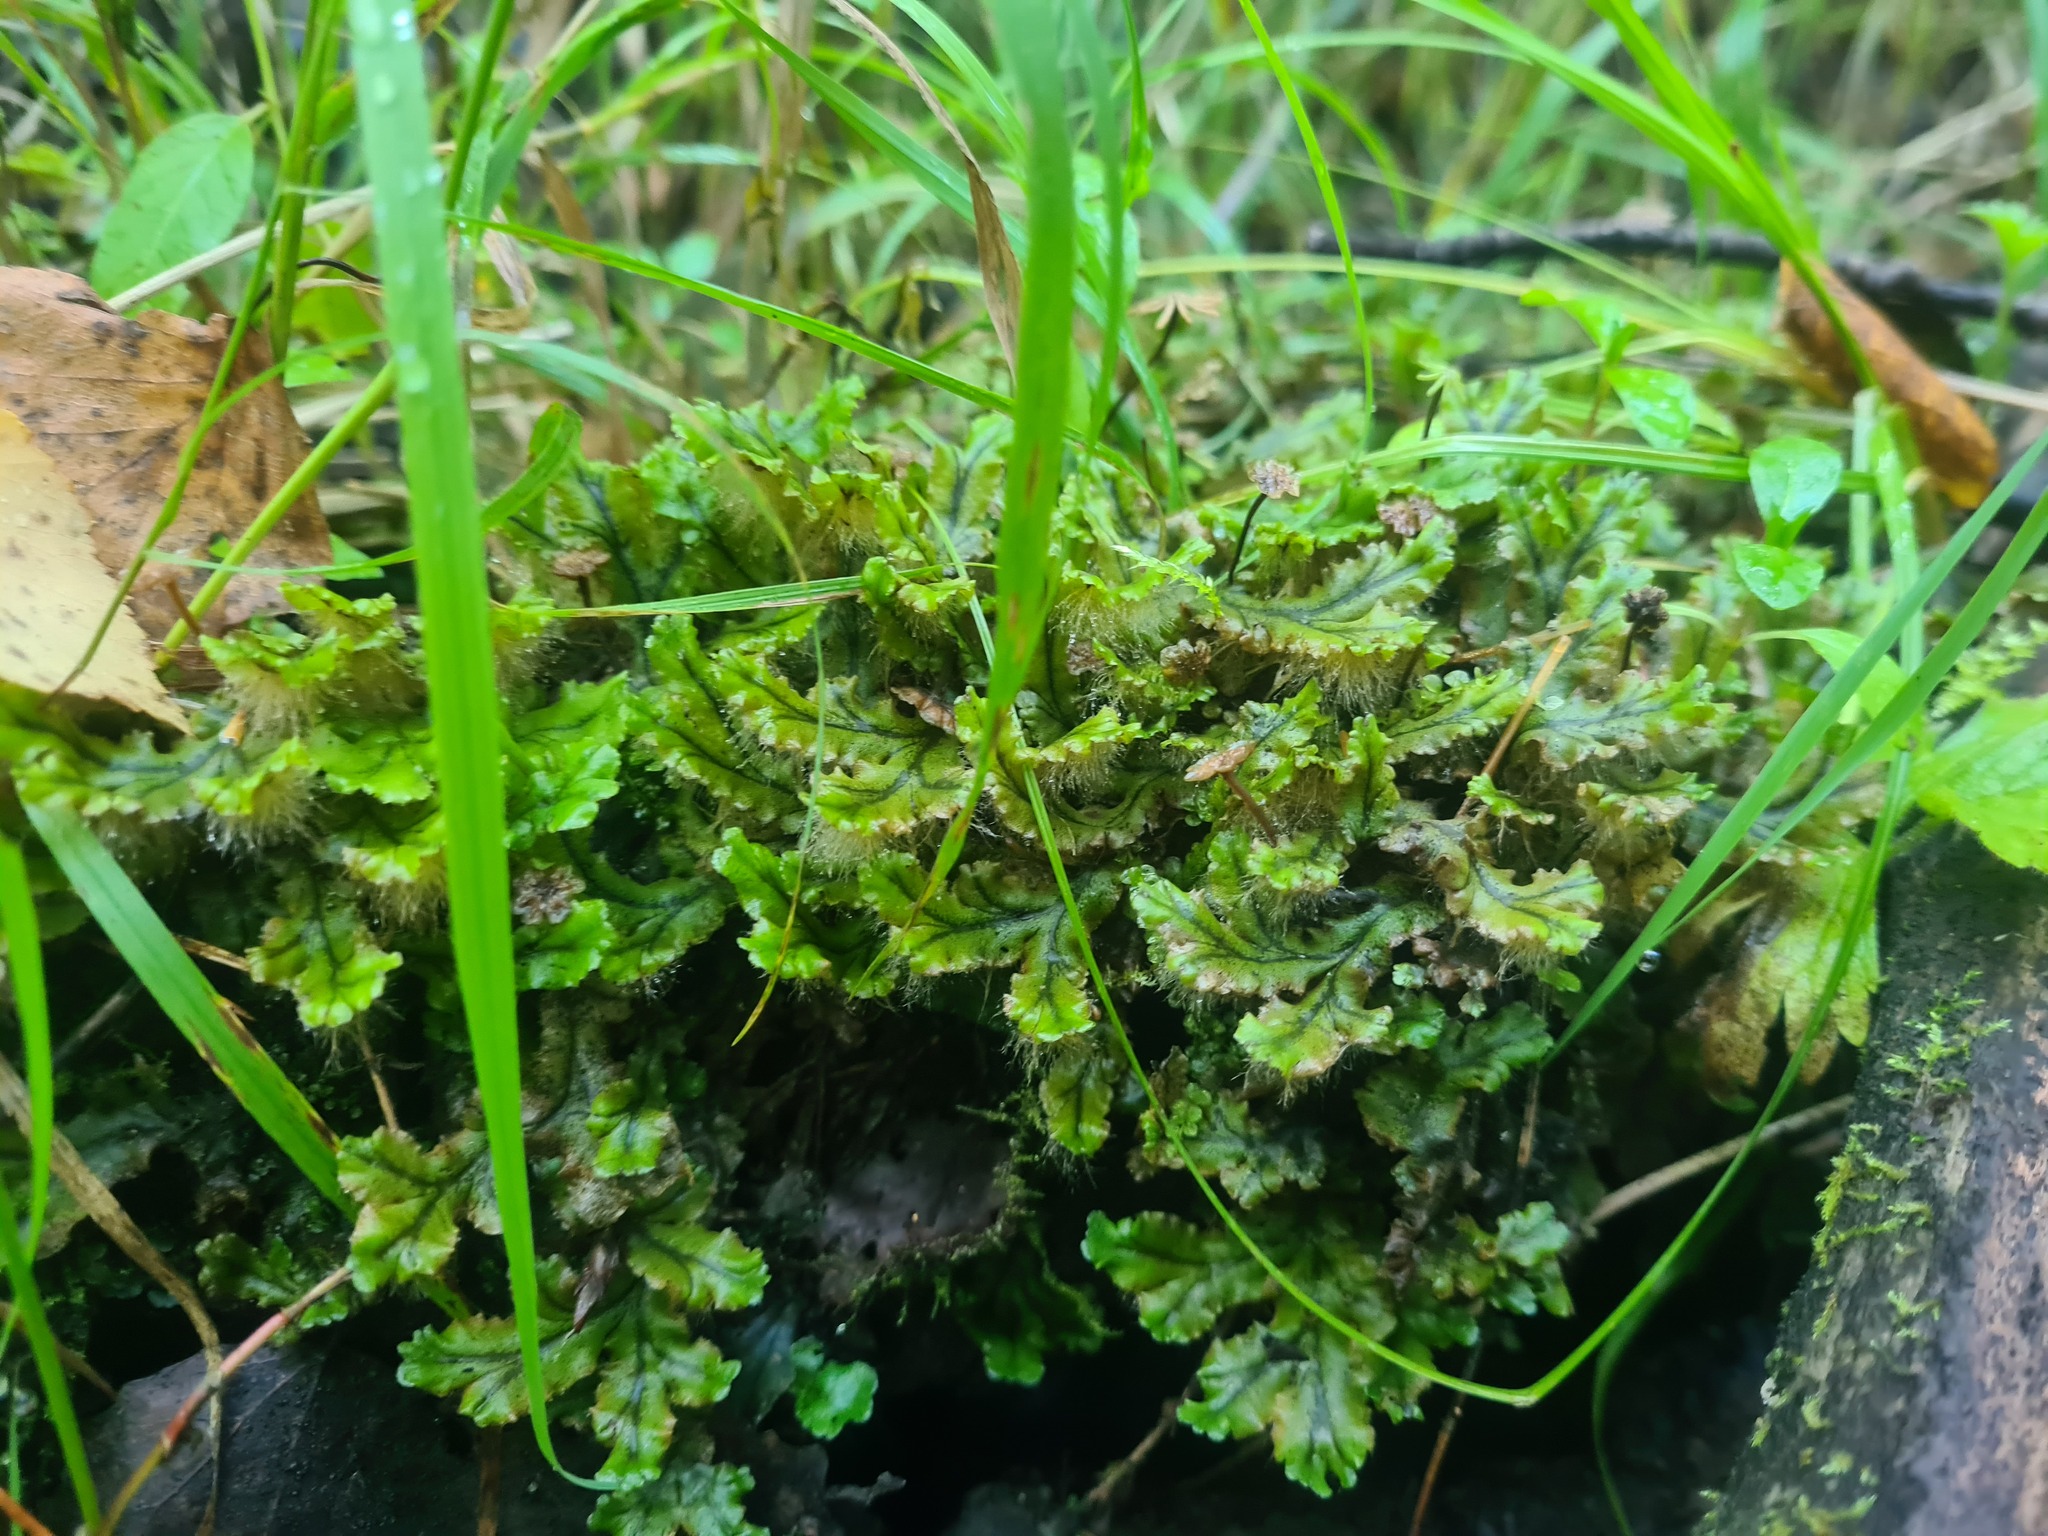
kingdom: Plantae
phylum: Marchantiophyta
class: Marchantiopsida
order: Marchantiales
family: Marchantiaceae
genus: Marchantia
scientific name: Marchantia polymorpha
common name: Common liverwort
